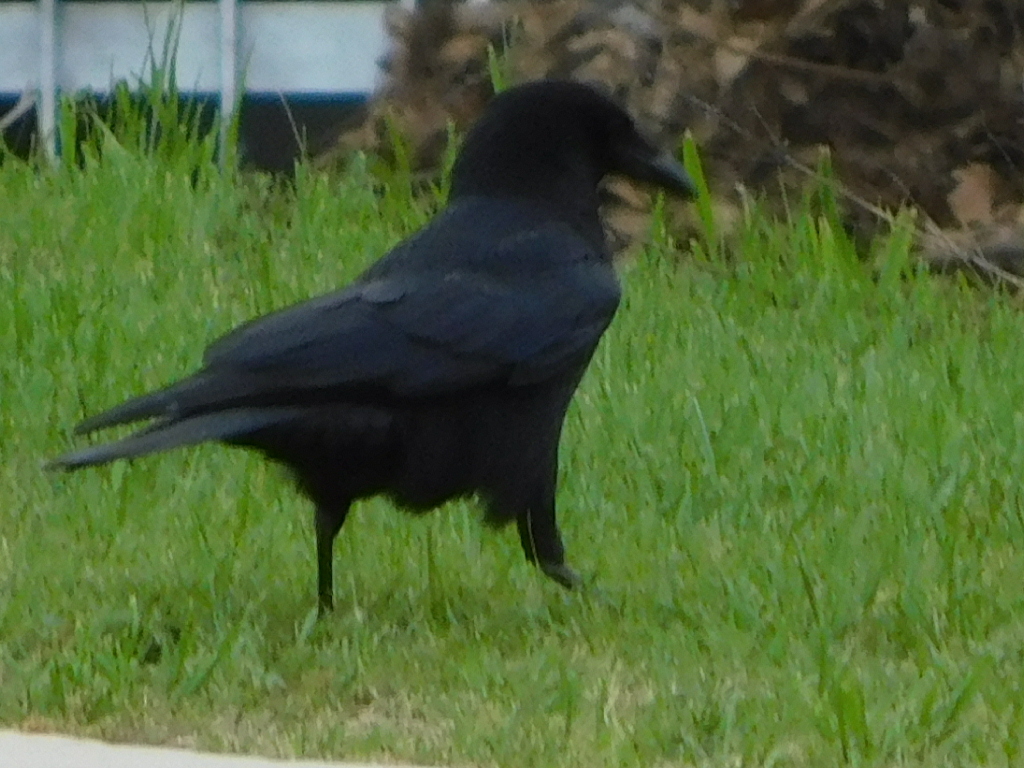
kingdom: Animalia
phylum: Chordata
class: Aves
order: Passeriformes
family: Corvidae
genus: Corvus
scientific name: Corvus brachyrhynchos
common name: American crow
